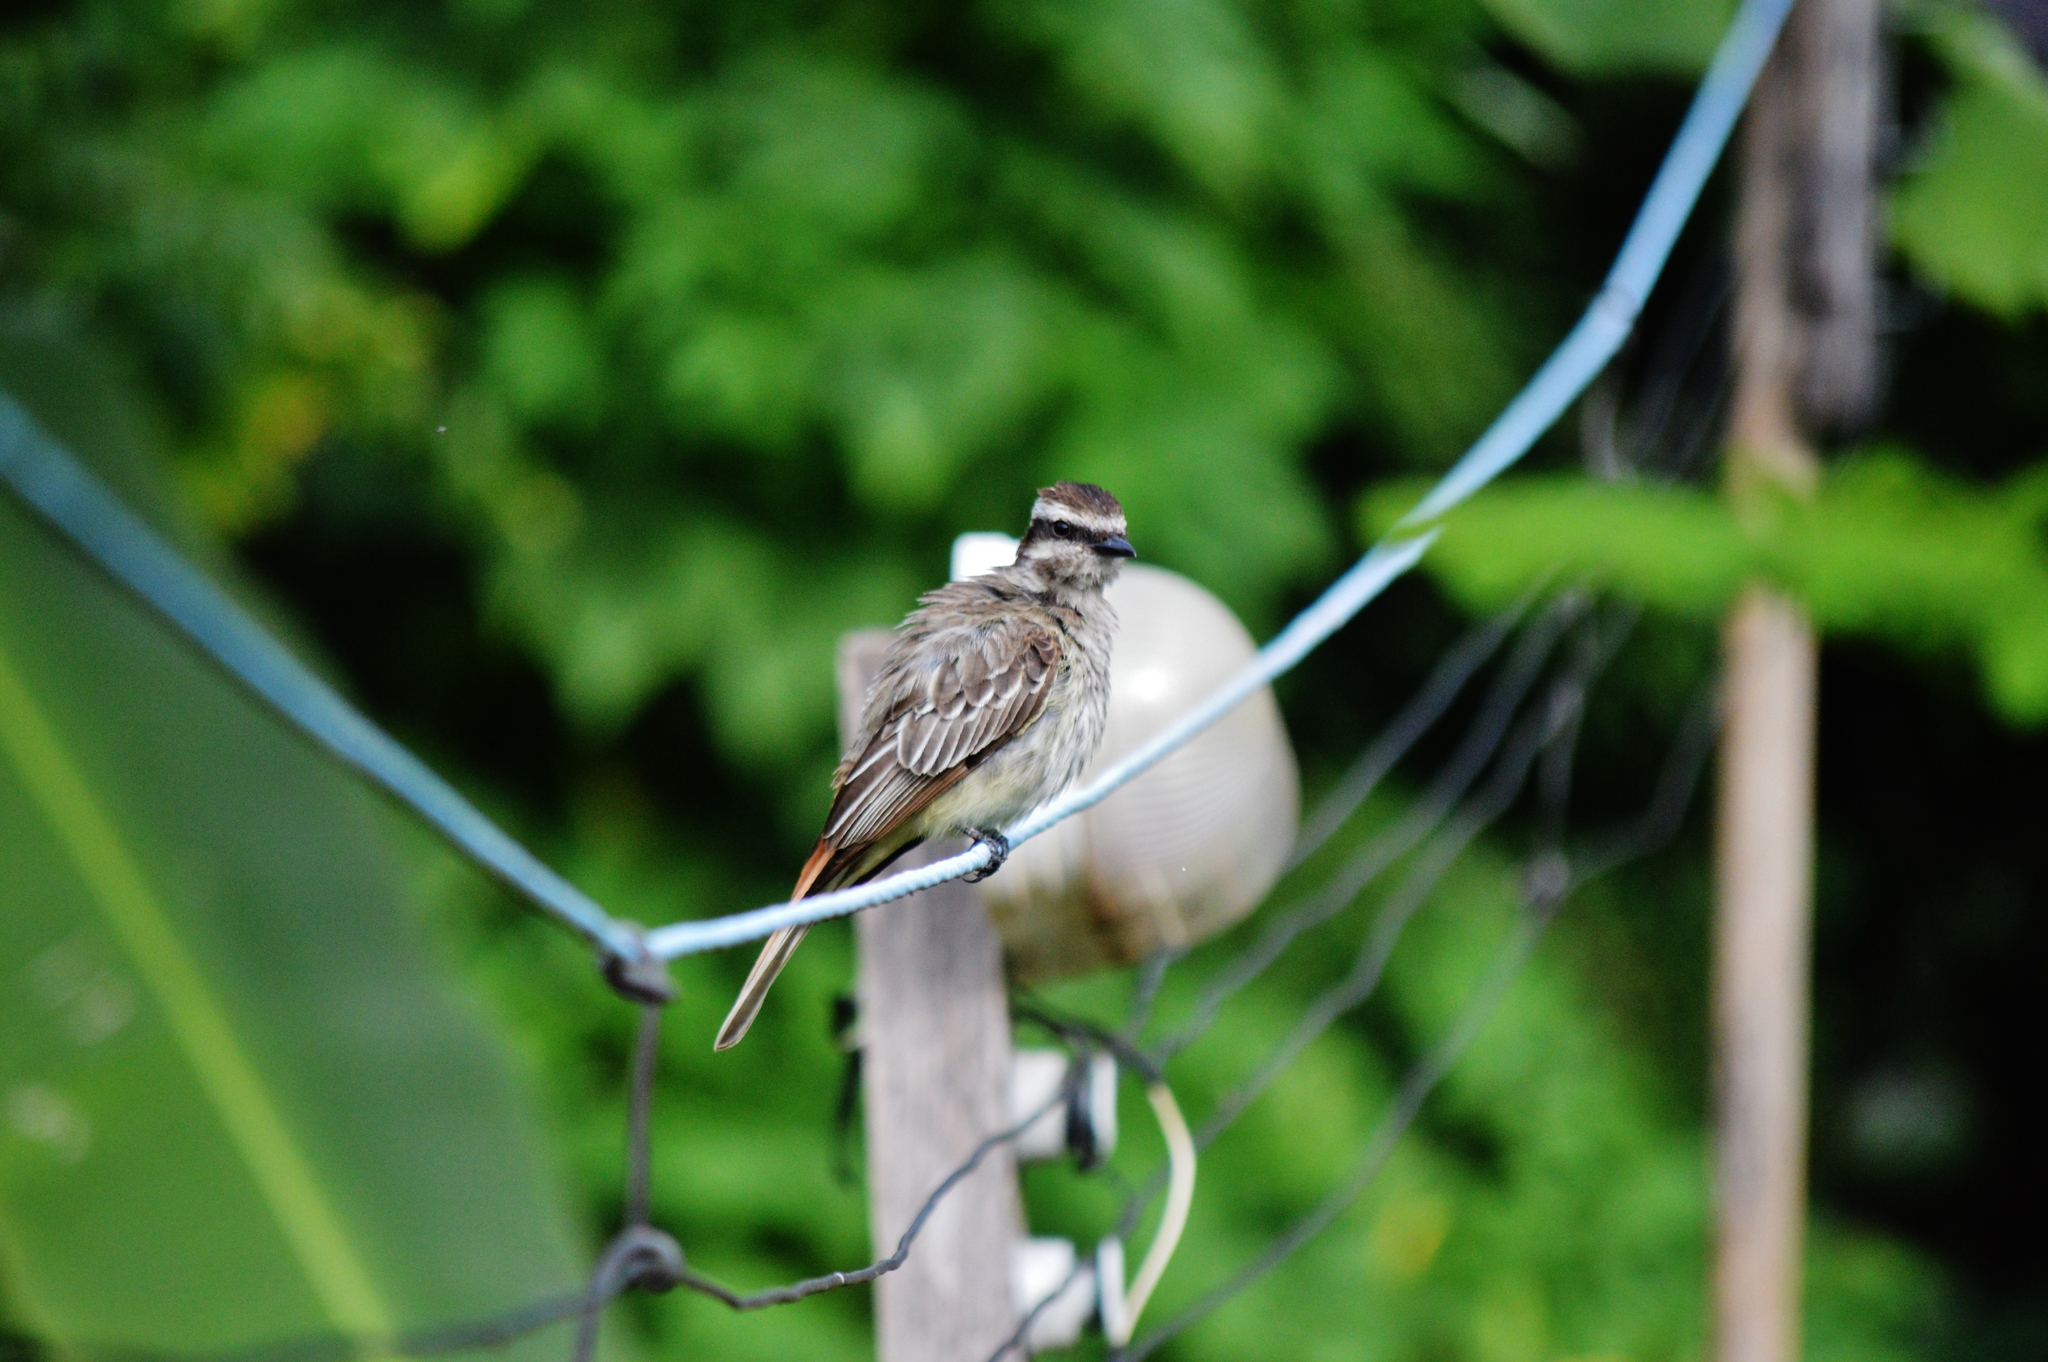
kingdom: Animalia
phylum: Chordata
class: Aves
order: Passeriformes
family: Tyrannidae
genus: Empidonomus
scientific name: Empidonomus varius
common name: Variegated flycatcher
